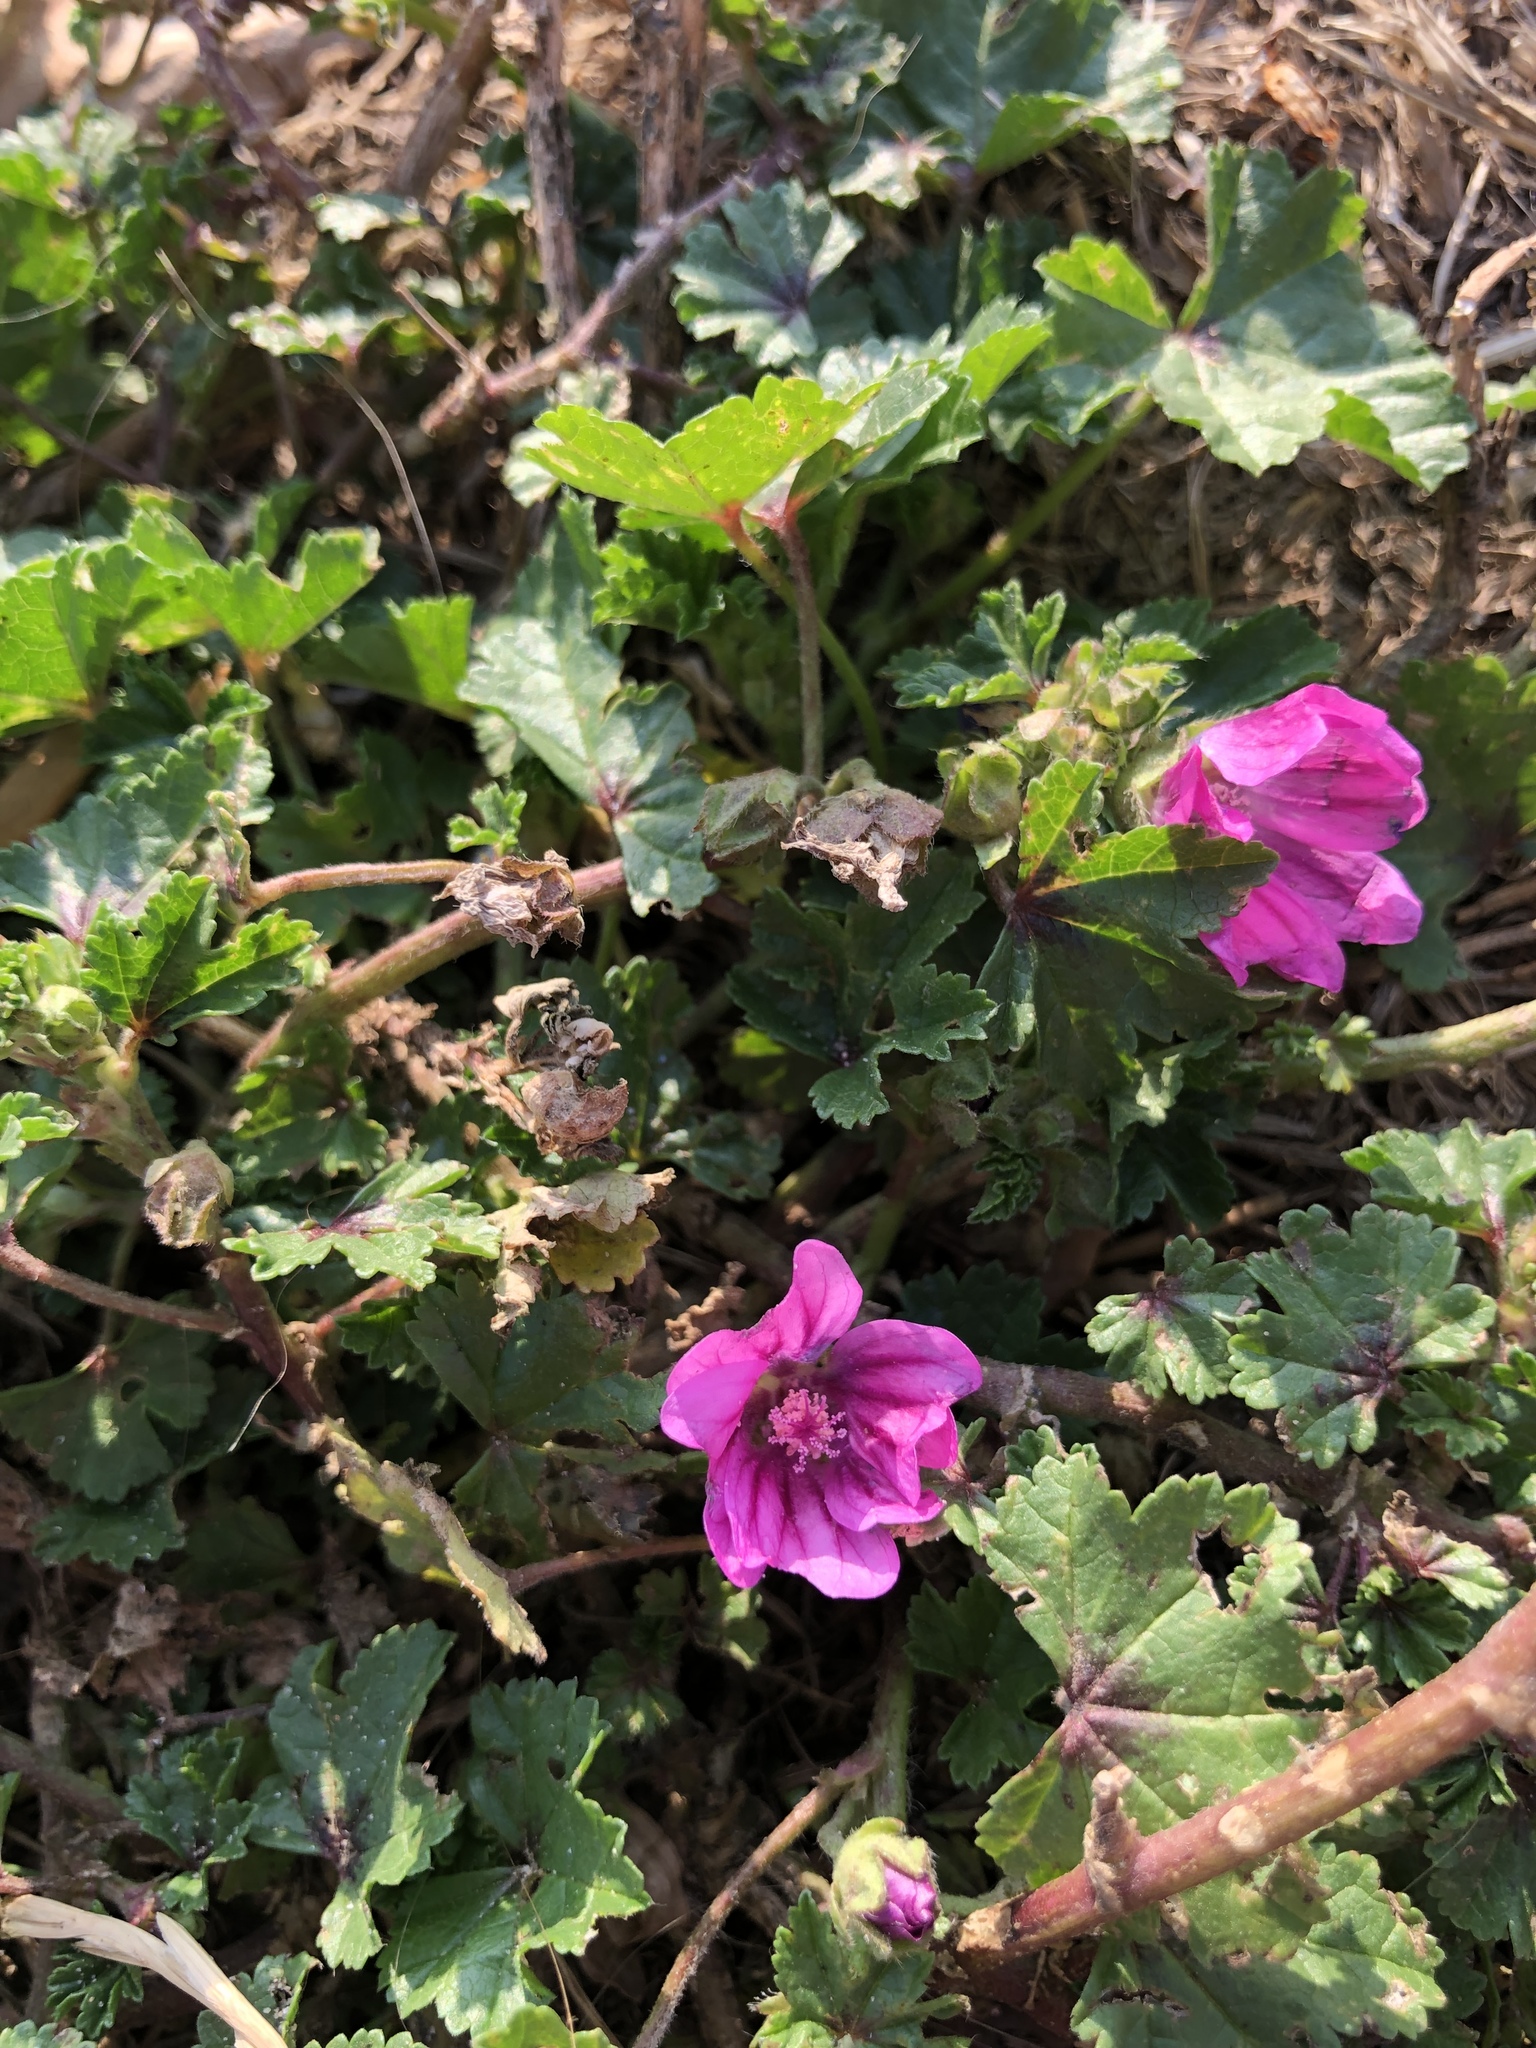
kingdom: Plantae
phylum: Tracheophyta
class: Magnoliopsida
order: Malvales
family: Malvaceae
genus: Malva
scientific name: Malva sylvestris
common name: Common mallow
